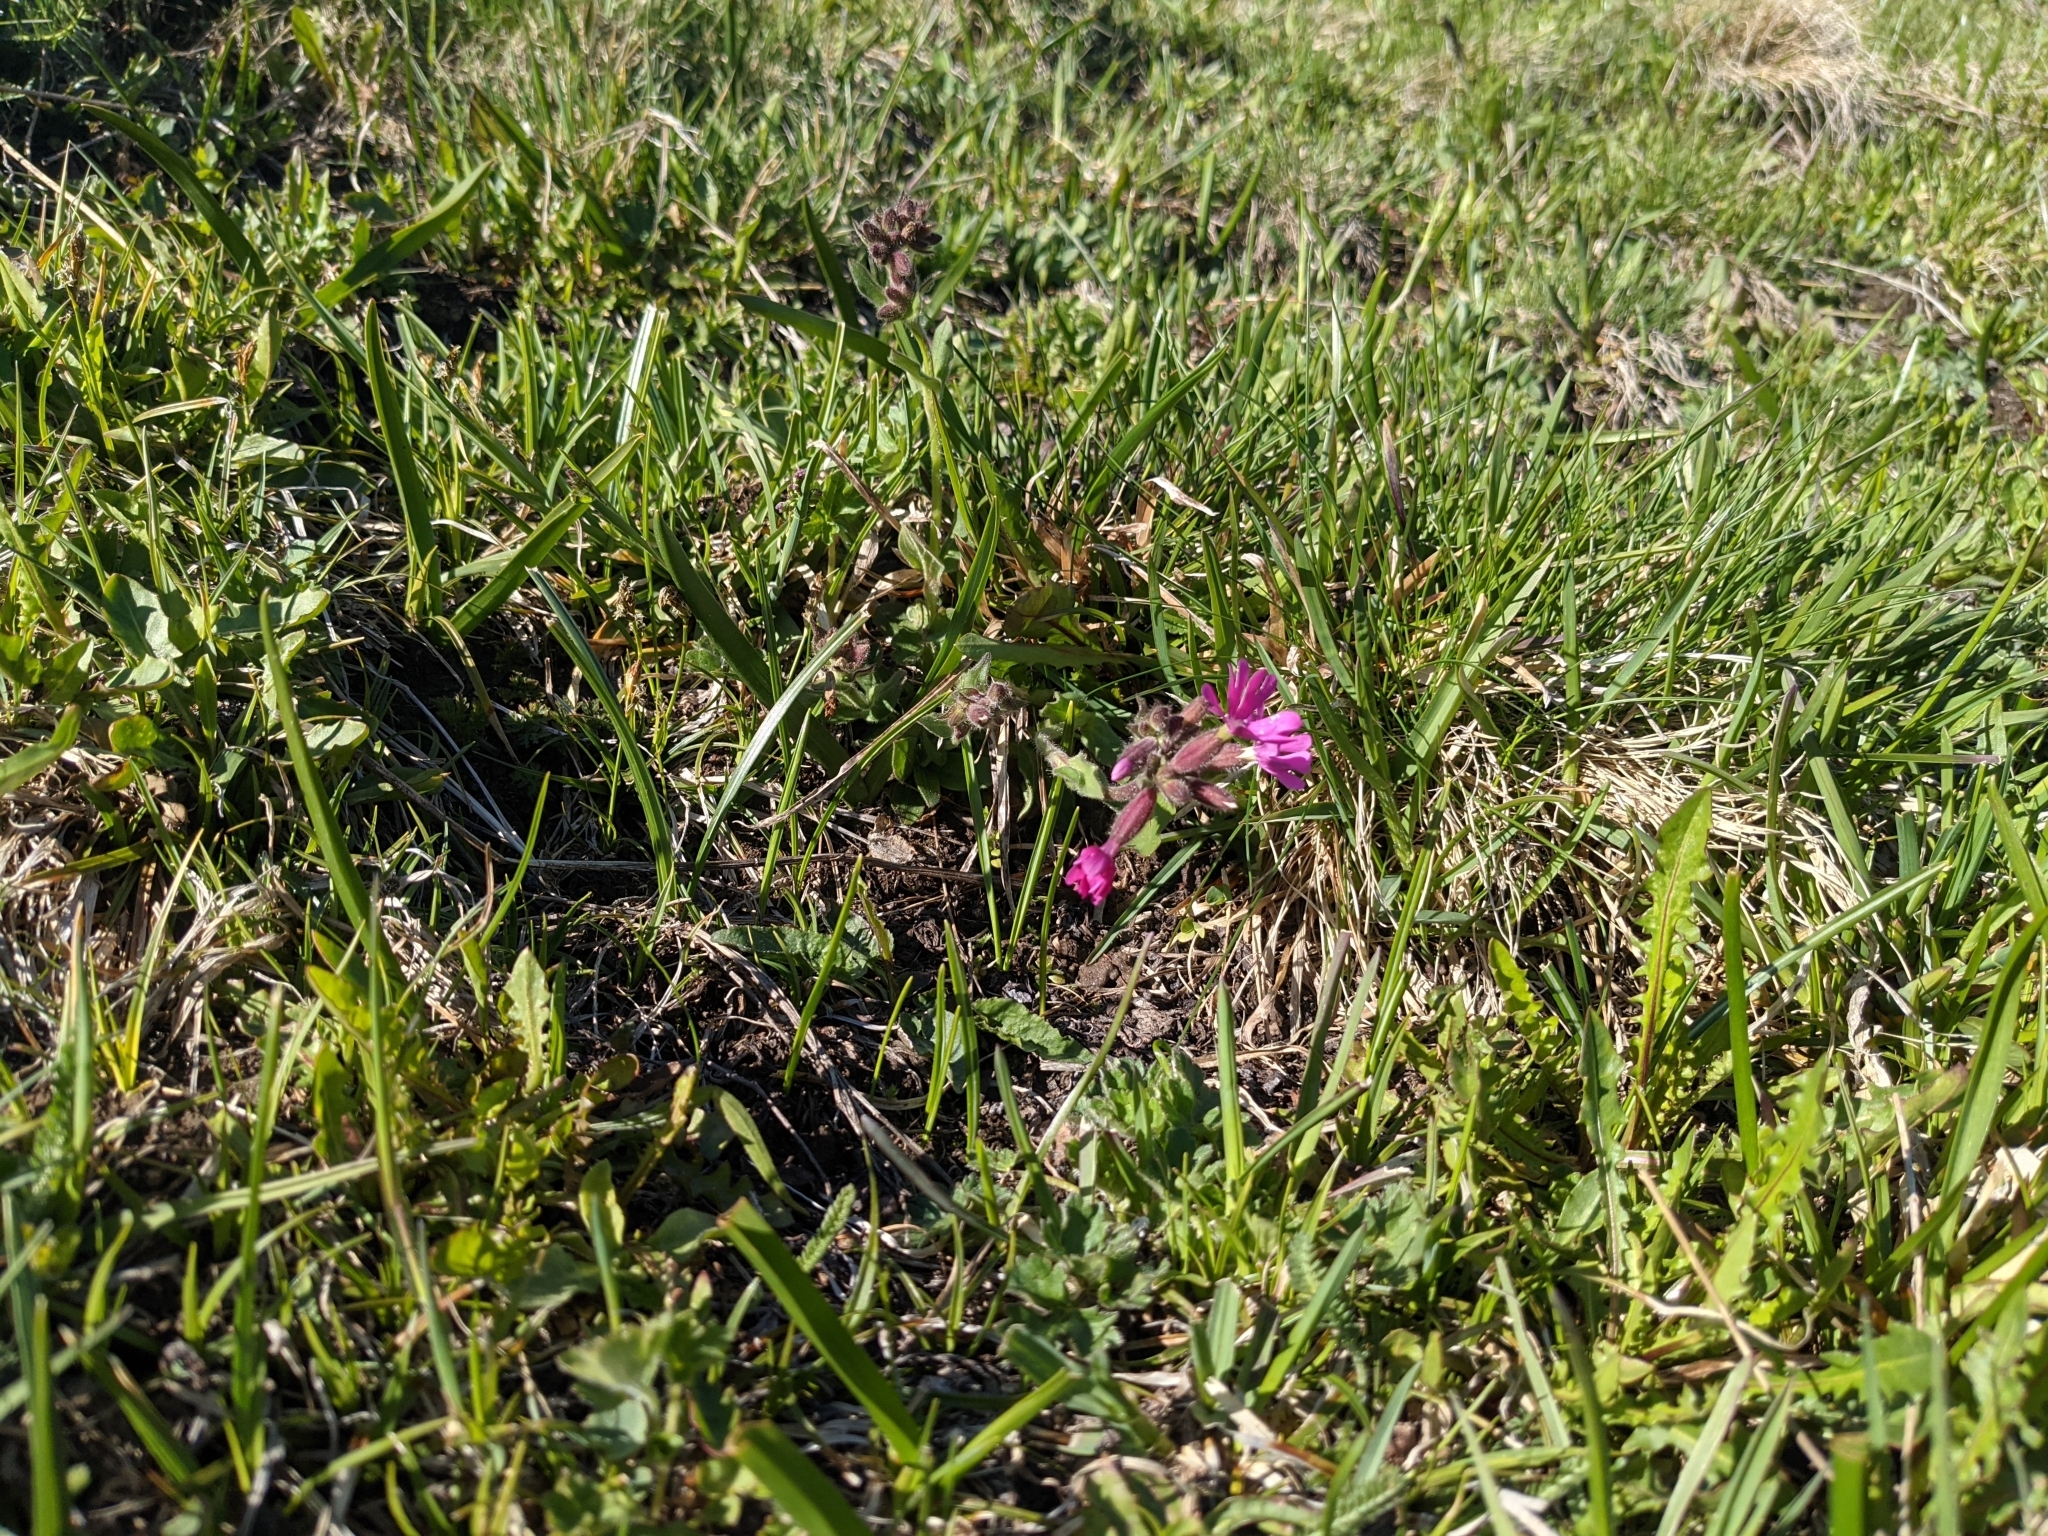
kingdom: Plantae
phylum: Tracheophyta
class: Magnoliopsida
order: Caryophyllales
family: Caryophyllaceae
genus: Silene
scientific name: Silene dioica
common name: Red campion
